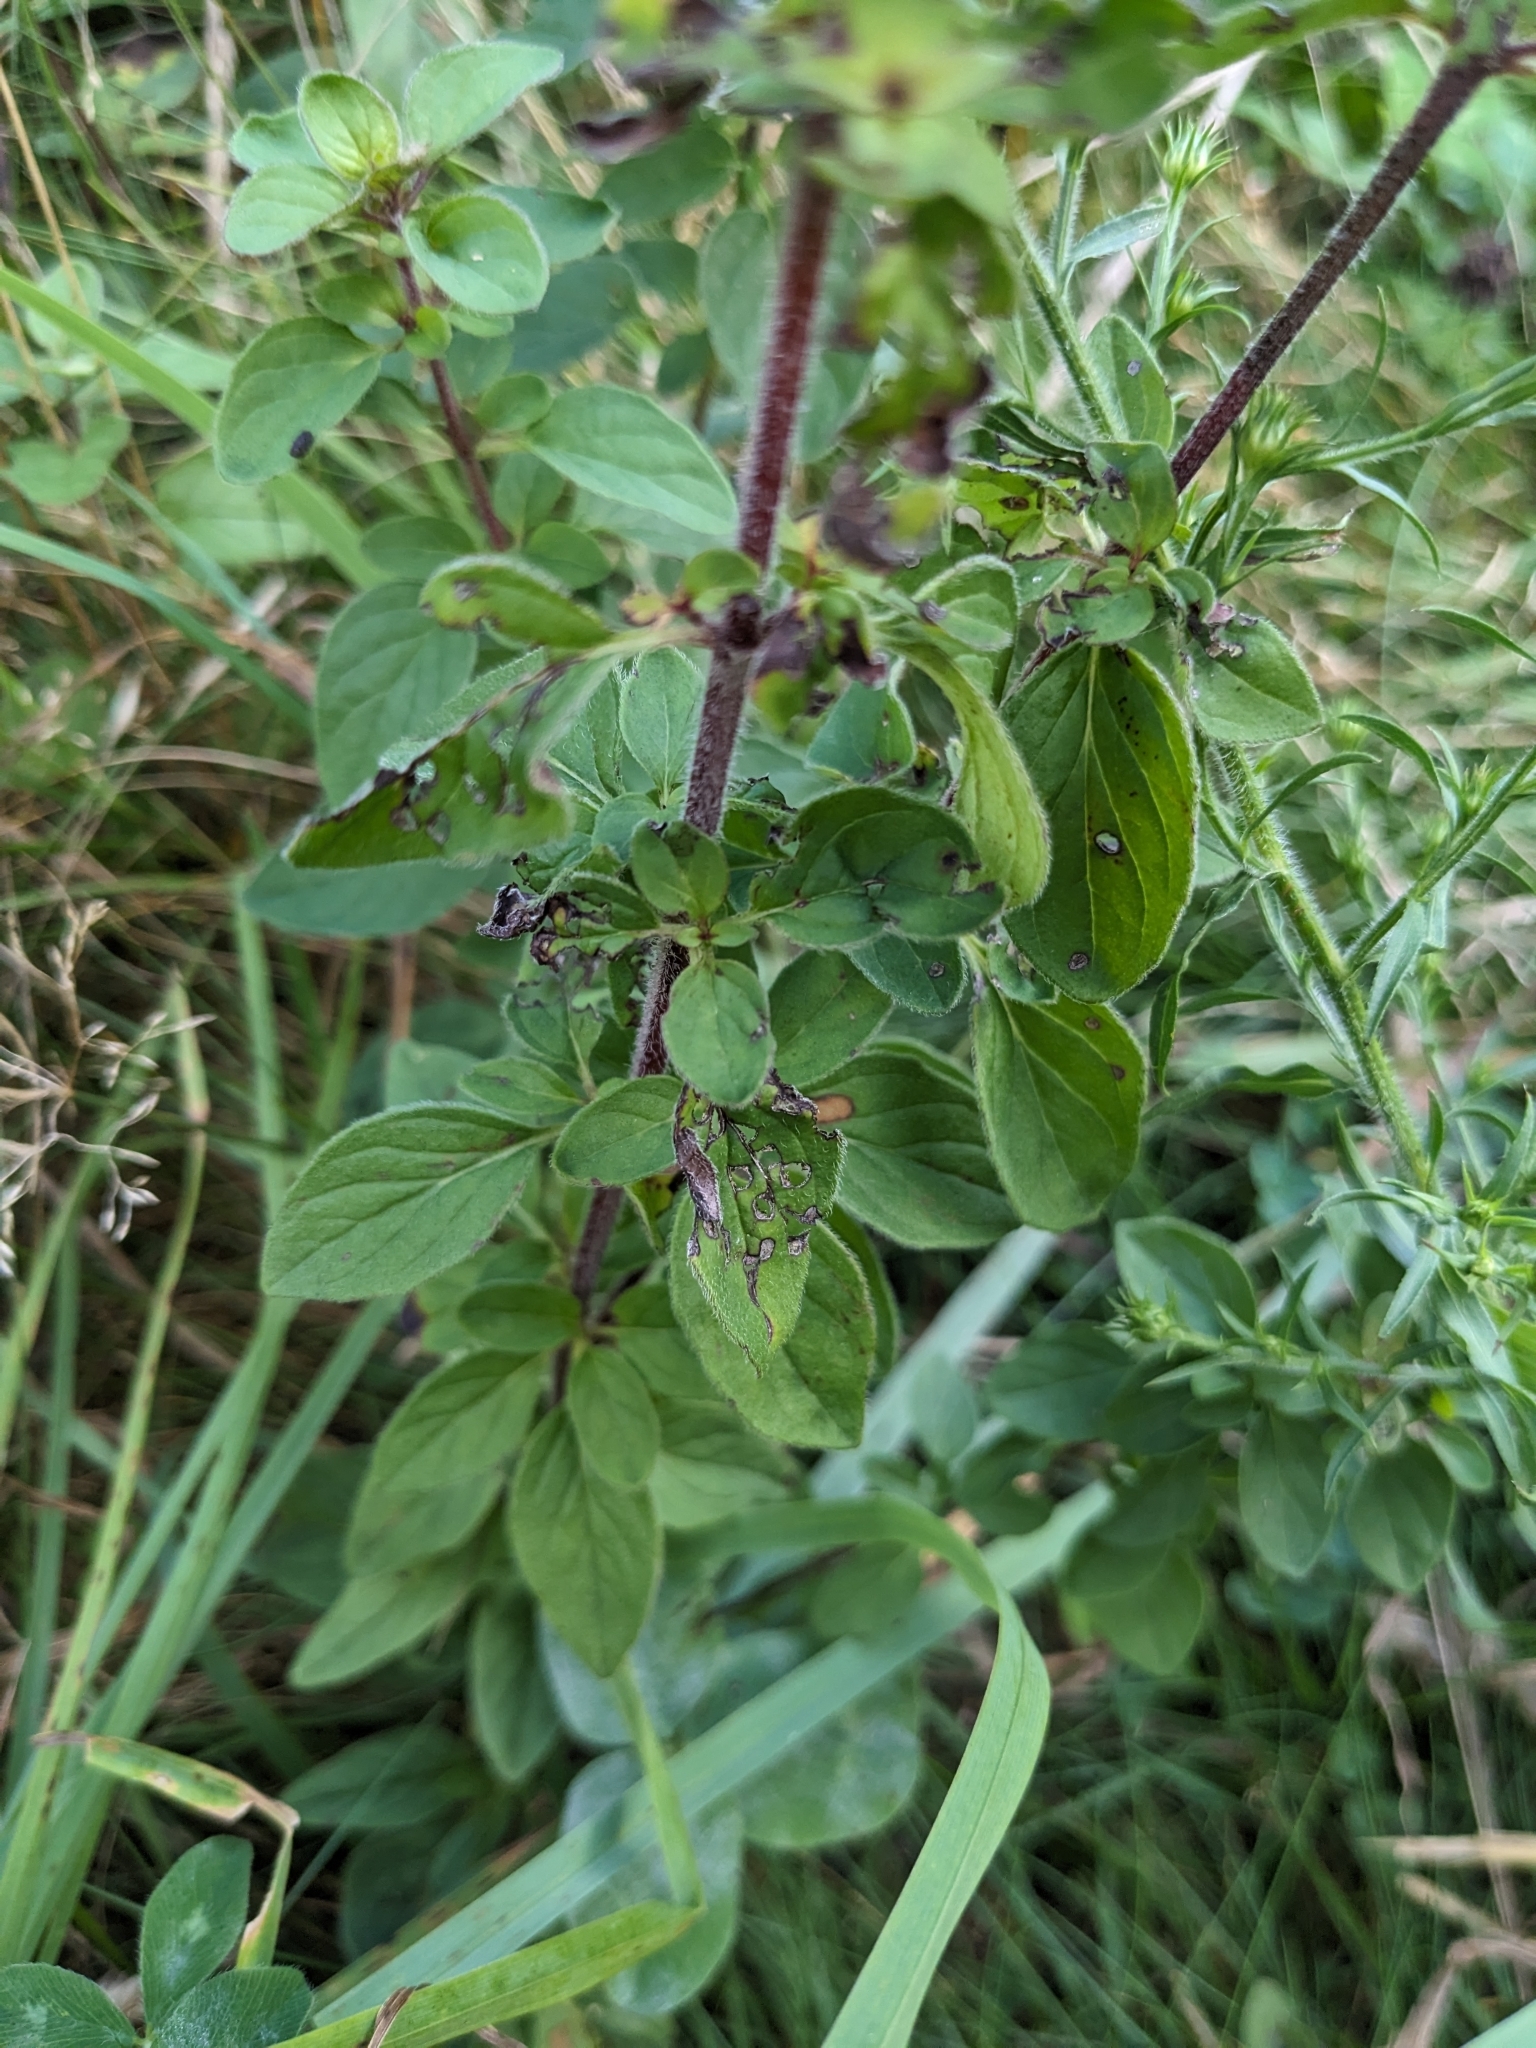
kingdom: Plantae
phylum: Tracheophyta
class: Magnoliopsida
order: Lamiales
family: Lamiaceae
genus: Origanum
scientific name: Origanum vulgare
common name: Wild marjoram
